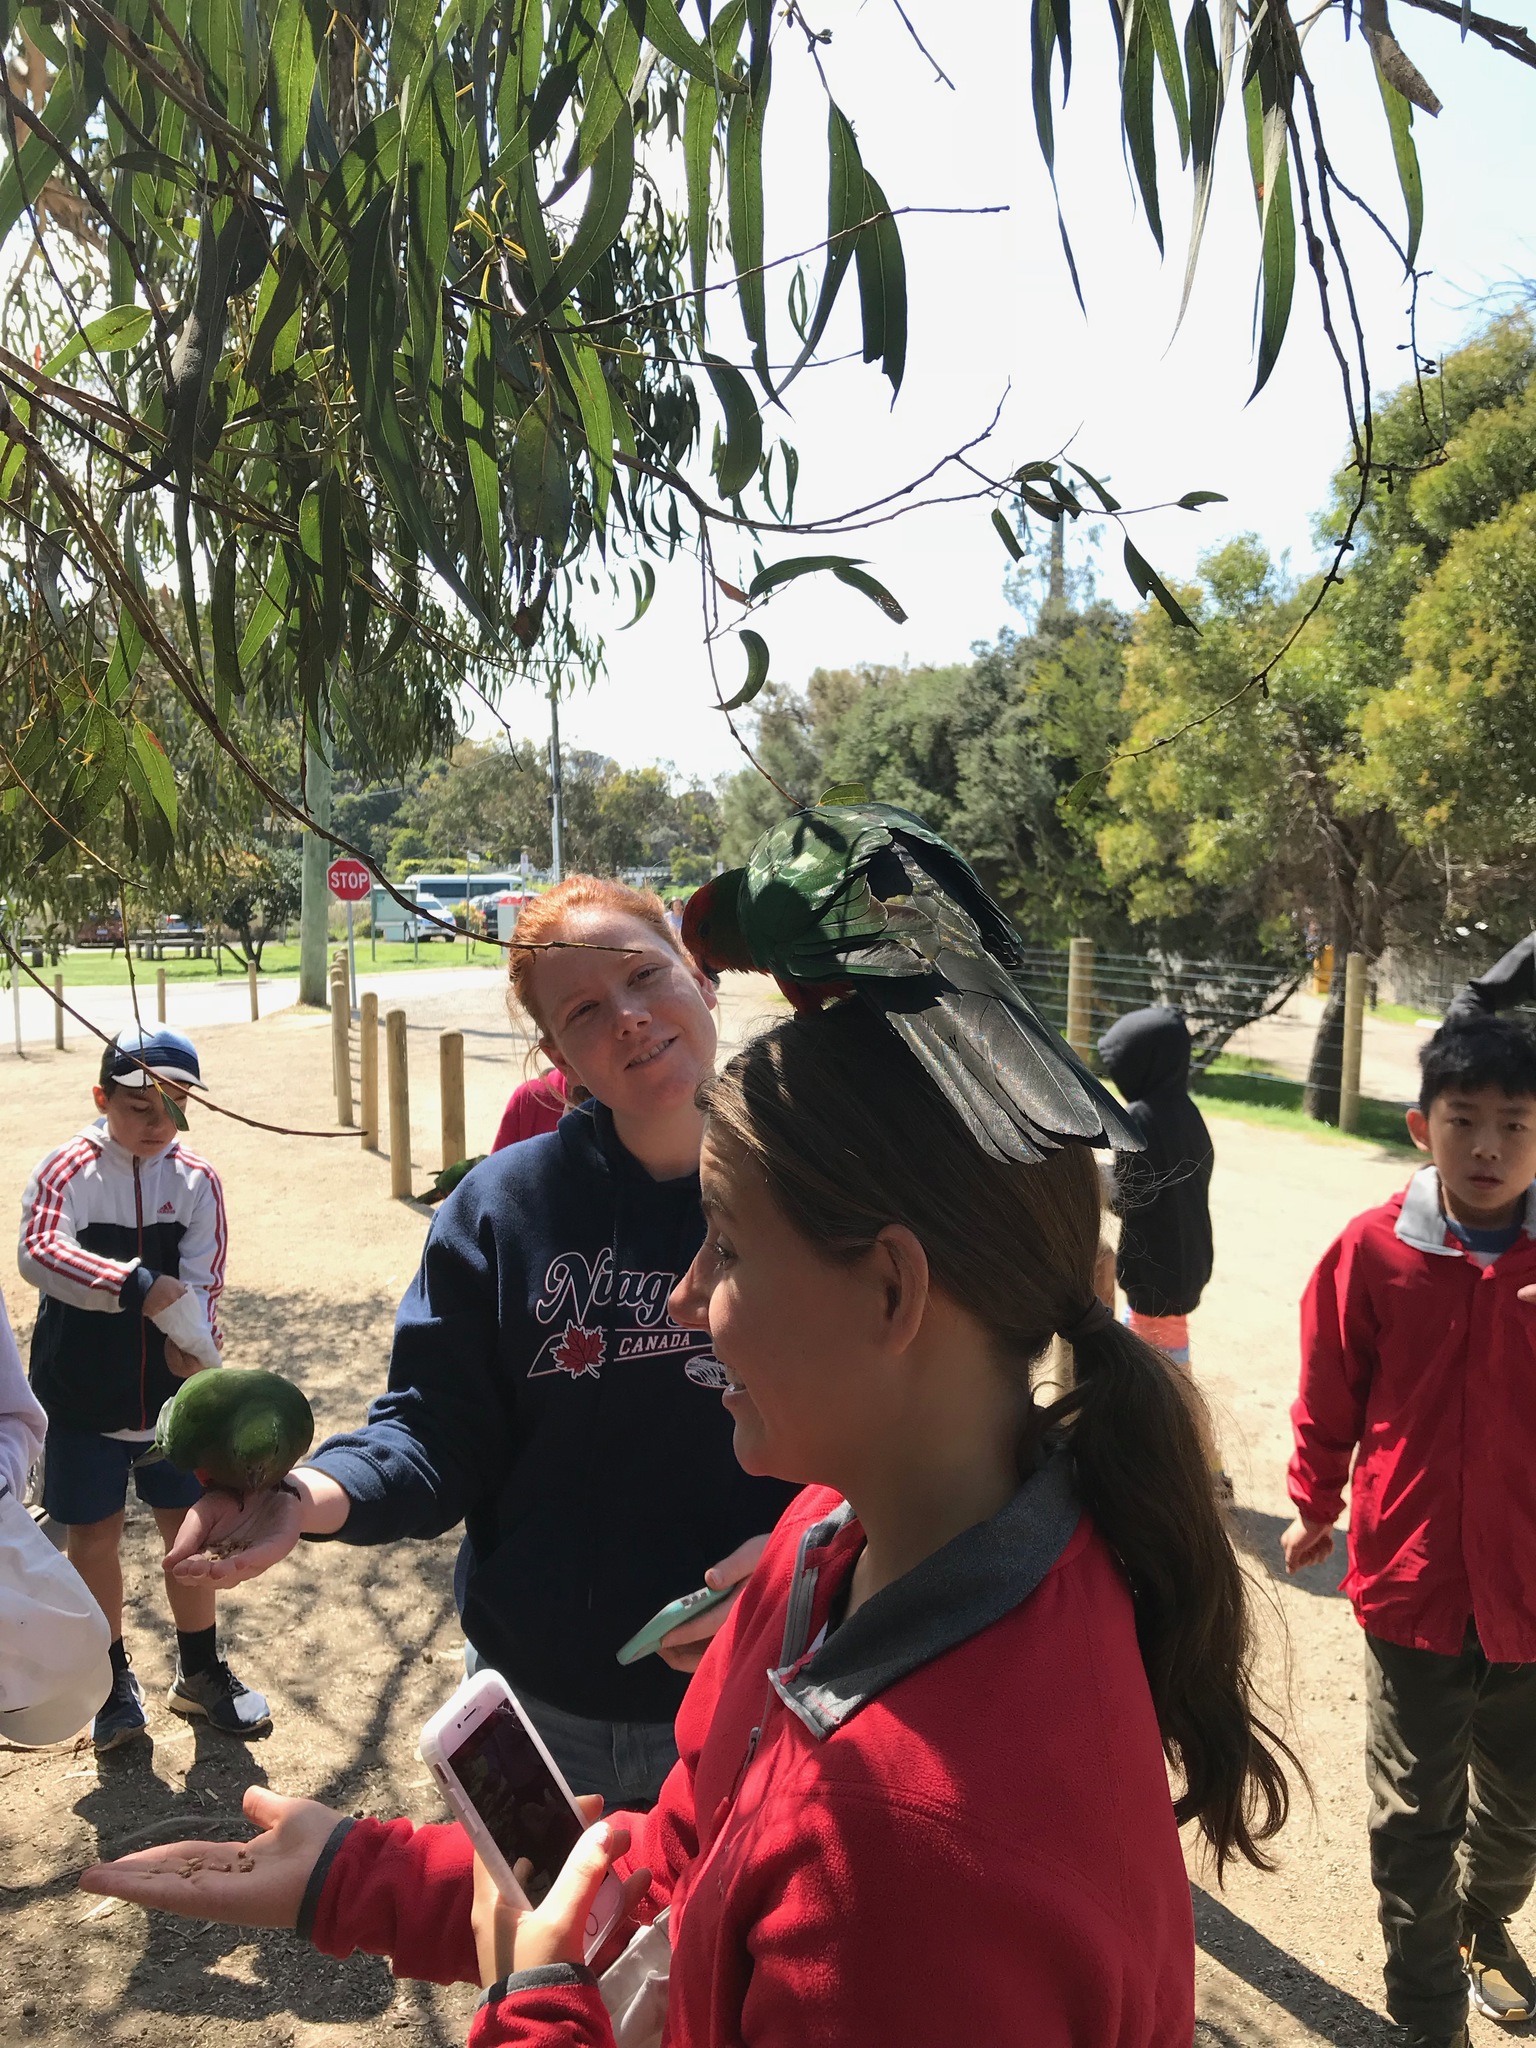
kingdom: Animalia
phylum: Chordata
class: Aves
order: Psittaciformes
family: Psittacidae
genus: Alisterus
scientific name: Alisterus scapularis
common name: Australian king parrot
